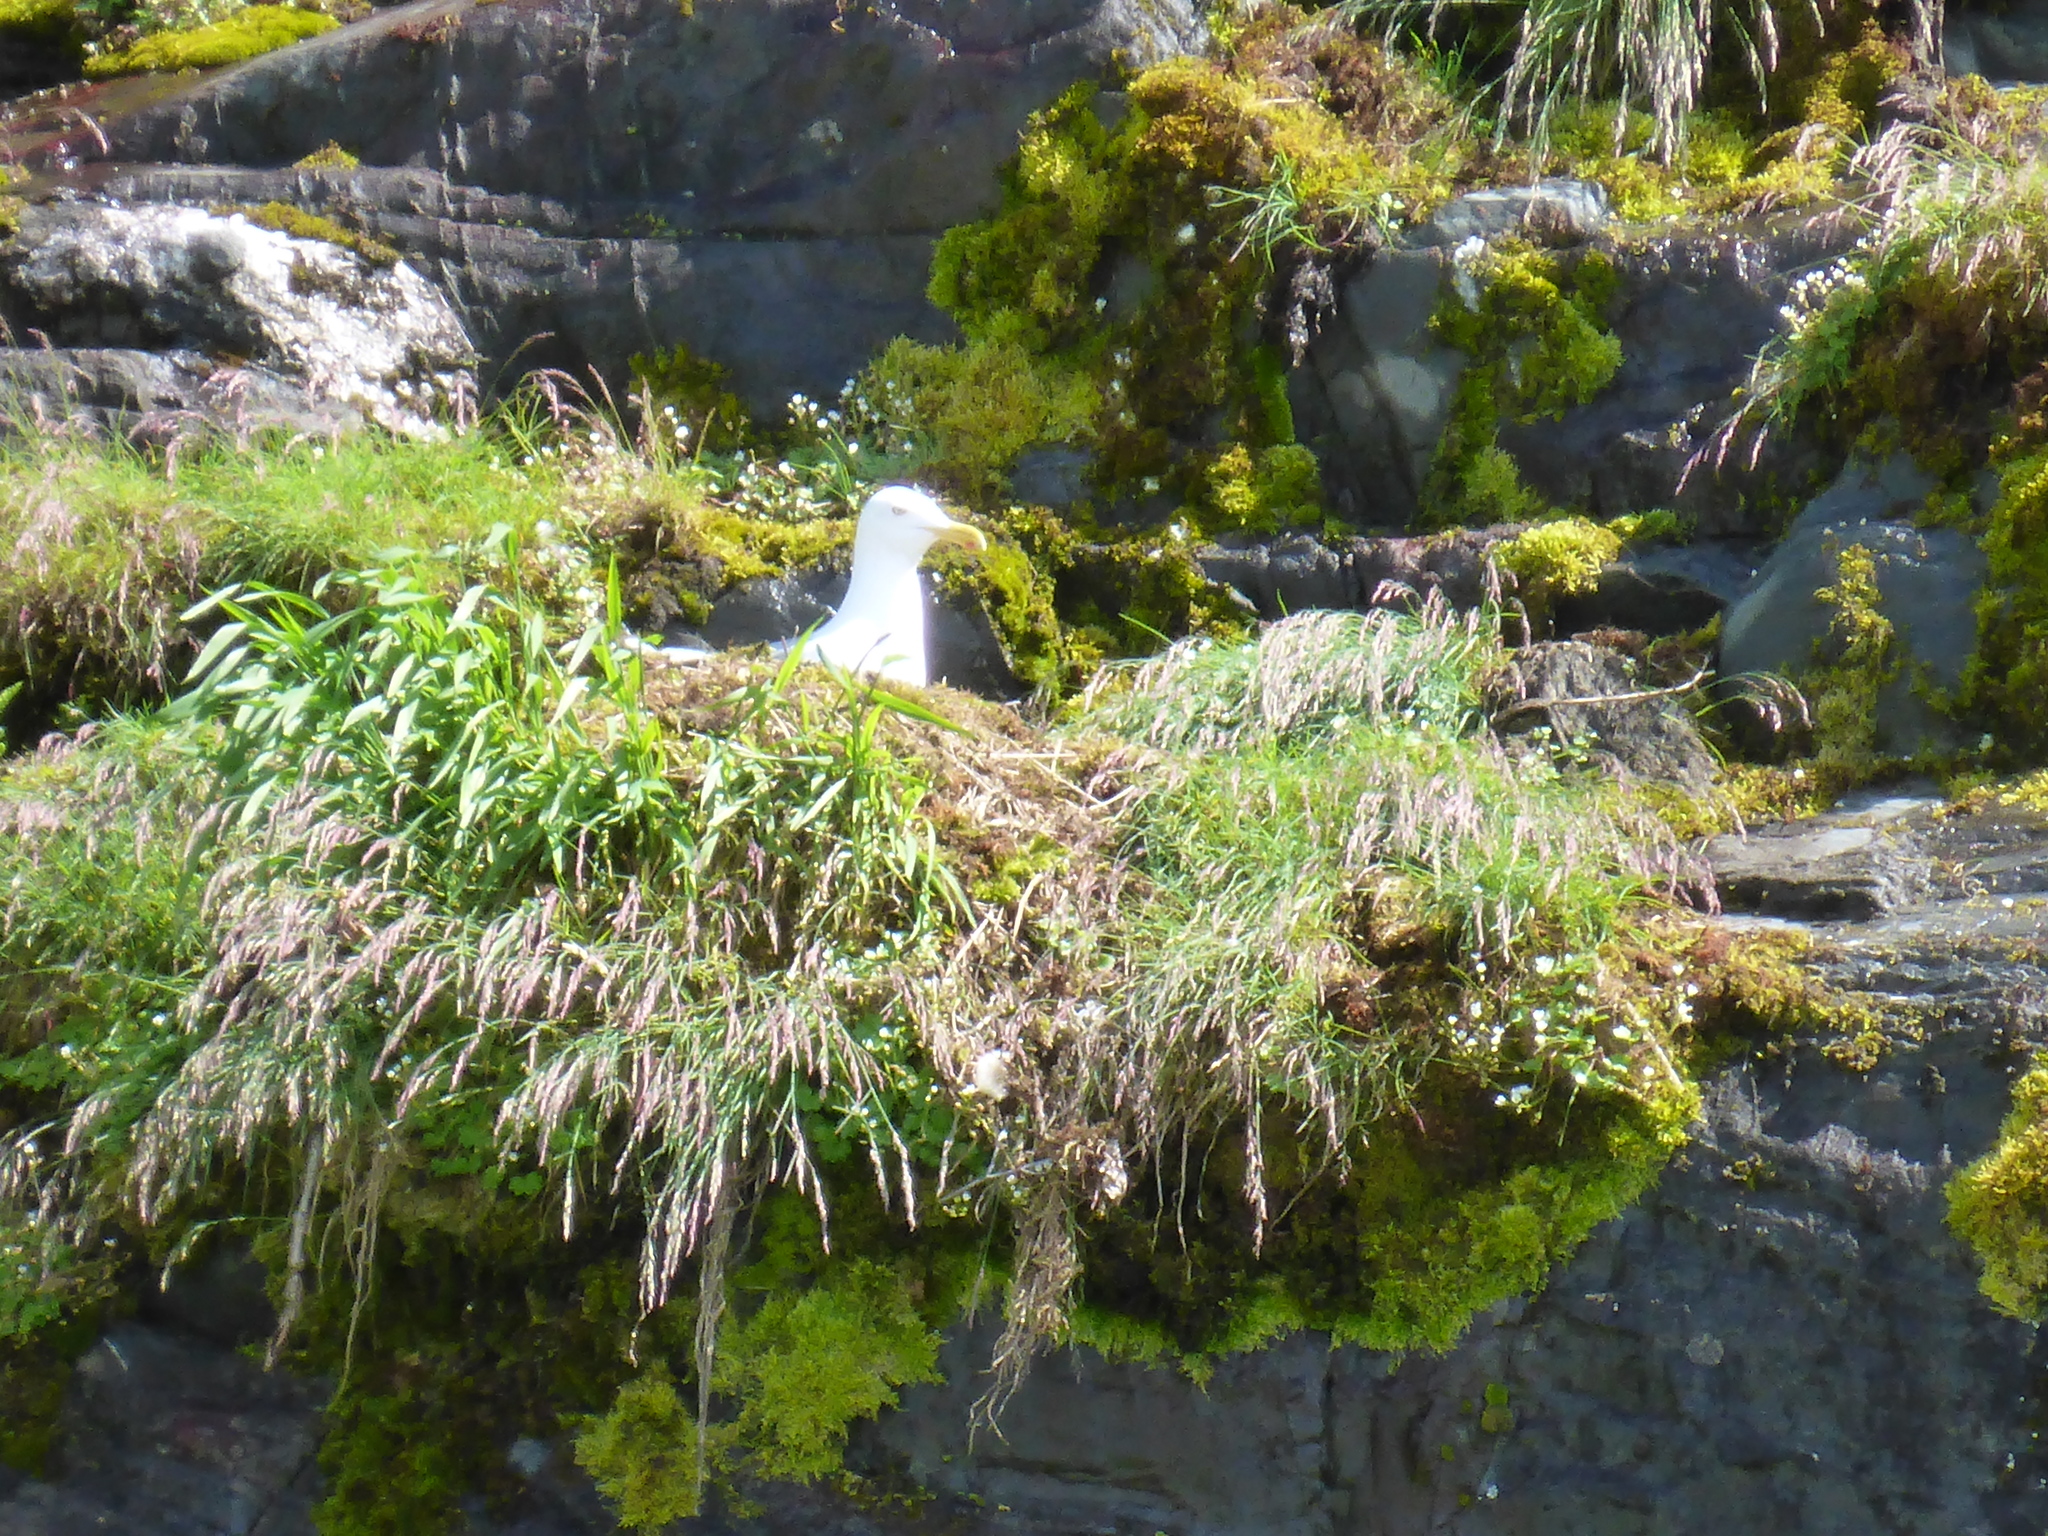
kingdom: Animalia
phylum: Chordata
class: Aves
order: Charadriiformes
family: Laridae
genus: Larus
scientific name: Larus glaucescens
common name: Glaucous-winged gull
